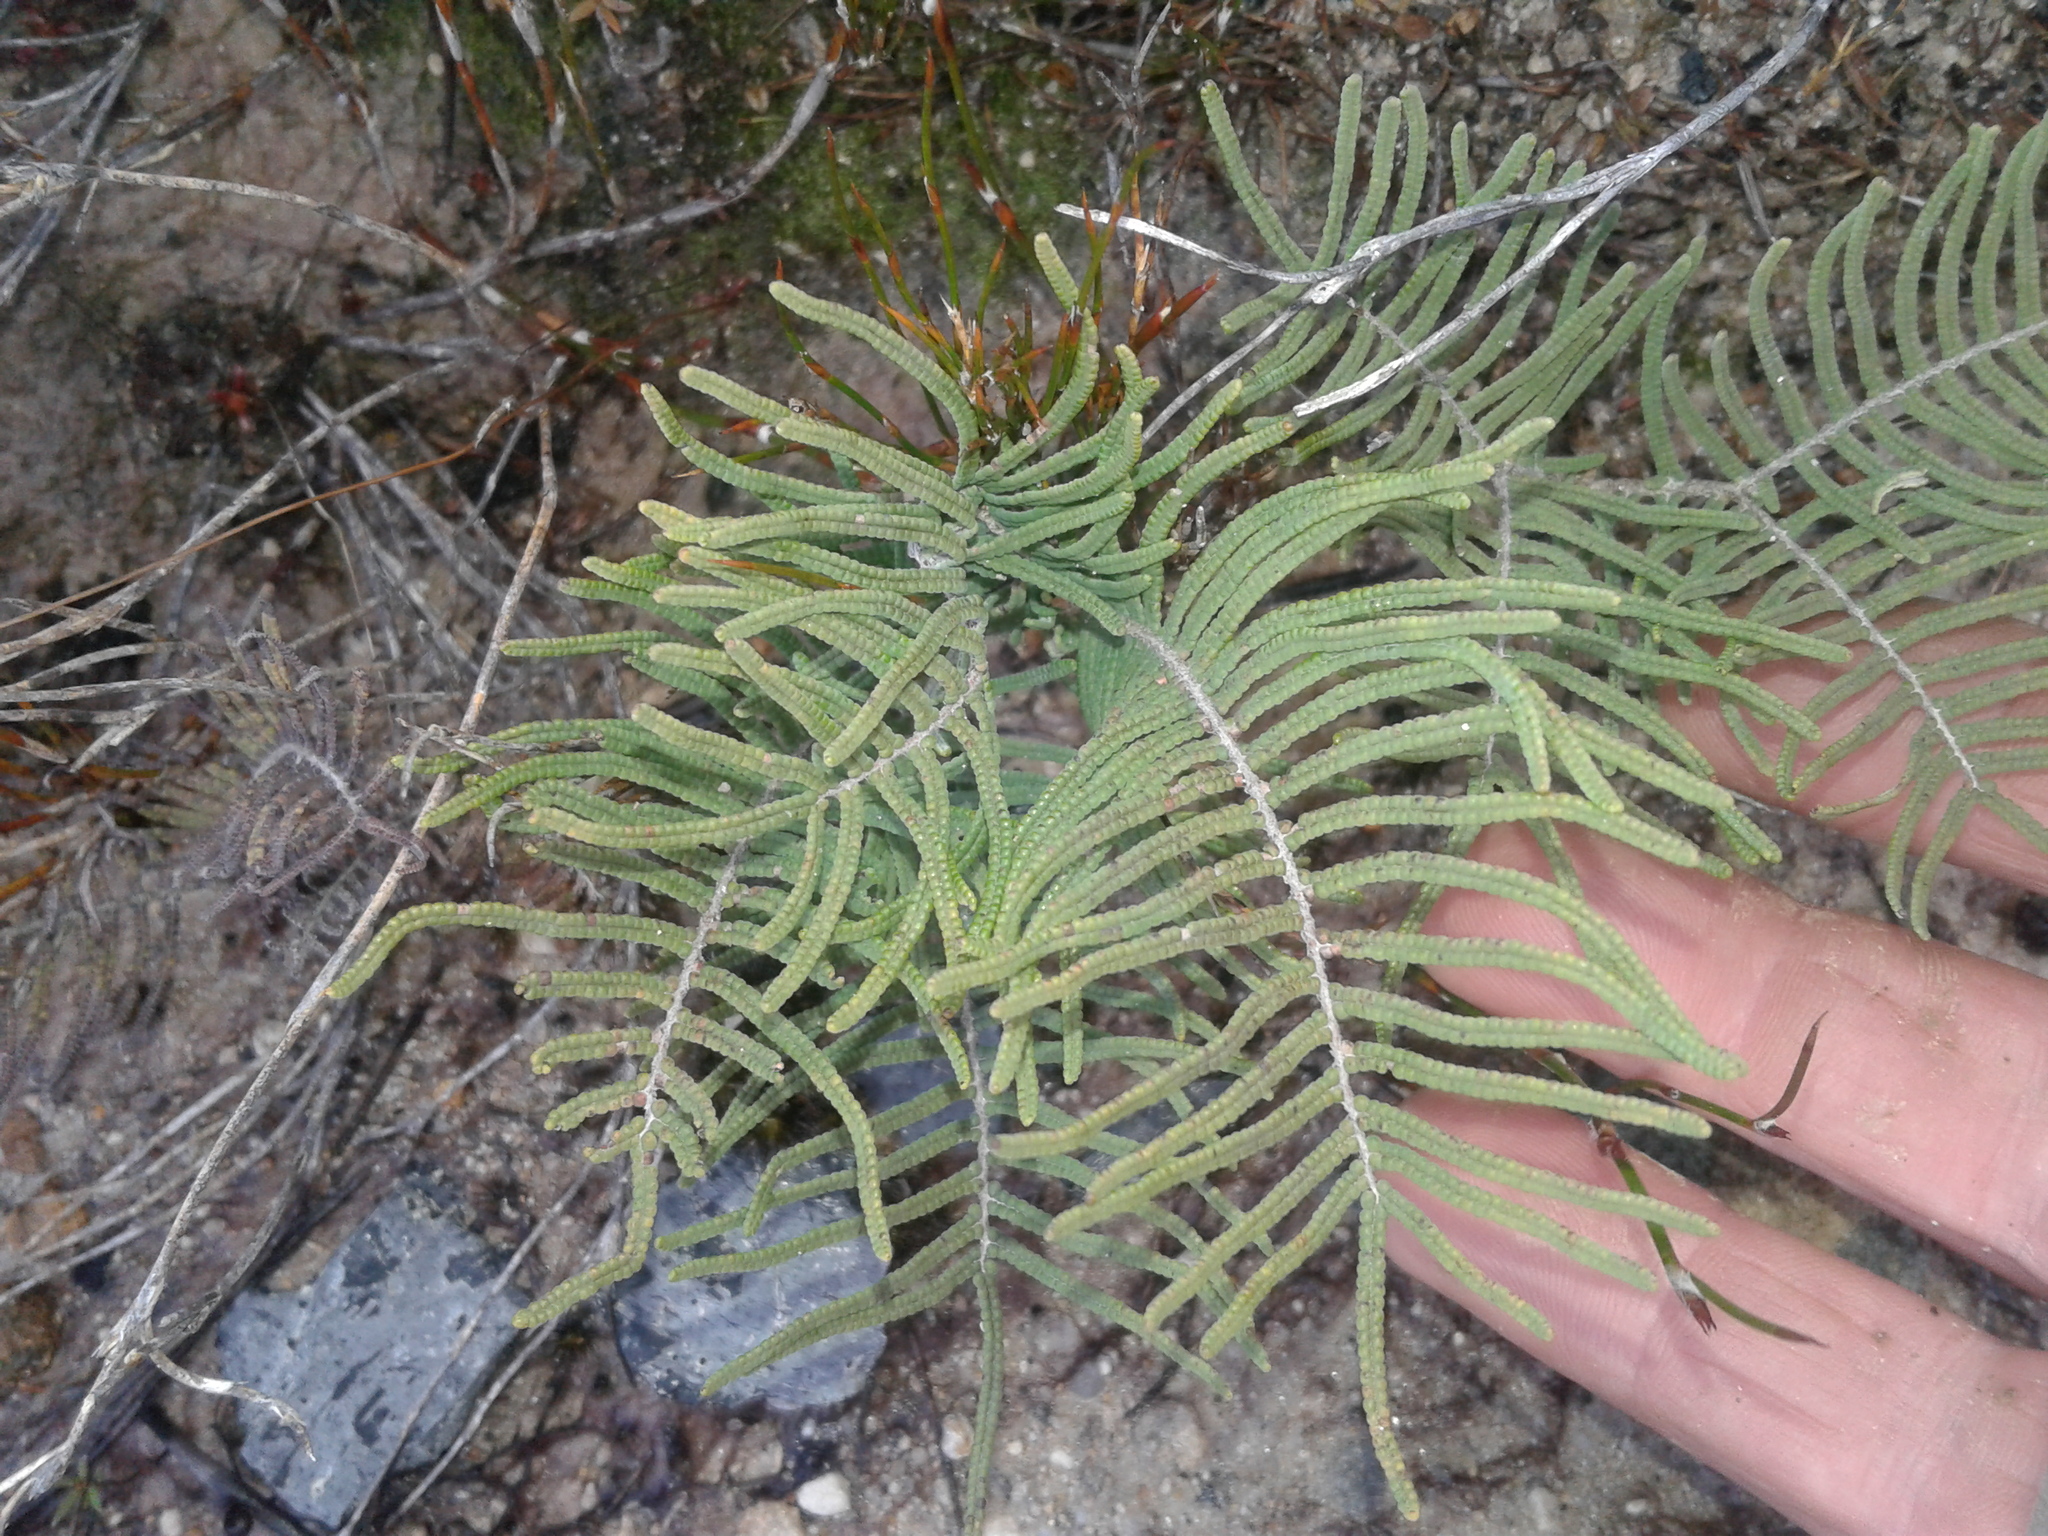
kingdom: Plantae
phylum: Tracheophyta
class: Polypodiopsida
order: Gleicheniales
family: Gleicheniaceae
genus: Gleichenia
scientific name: Gleichenia dicarpa
